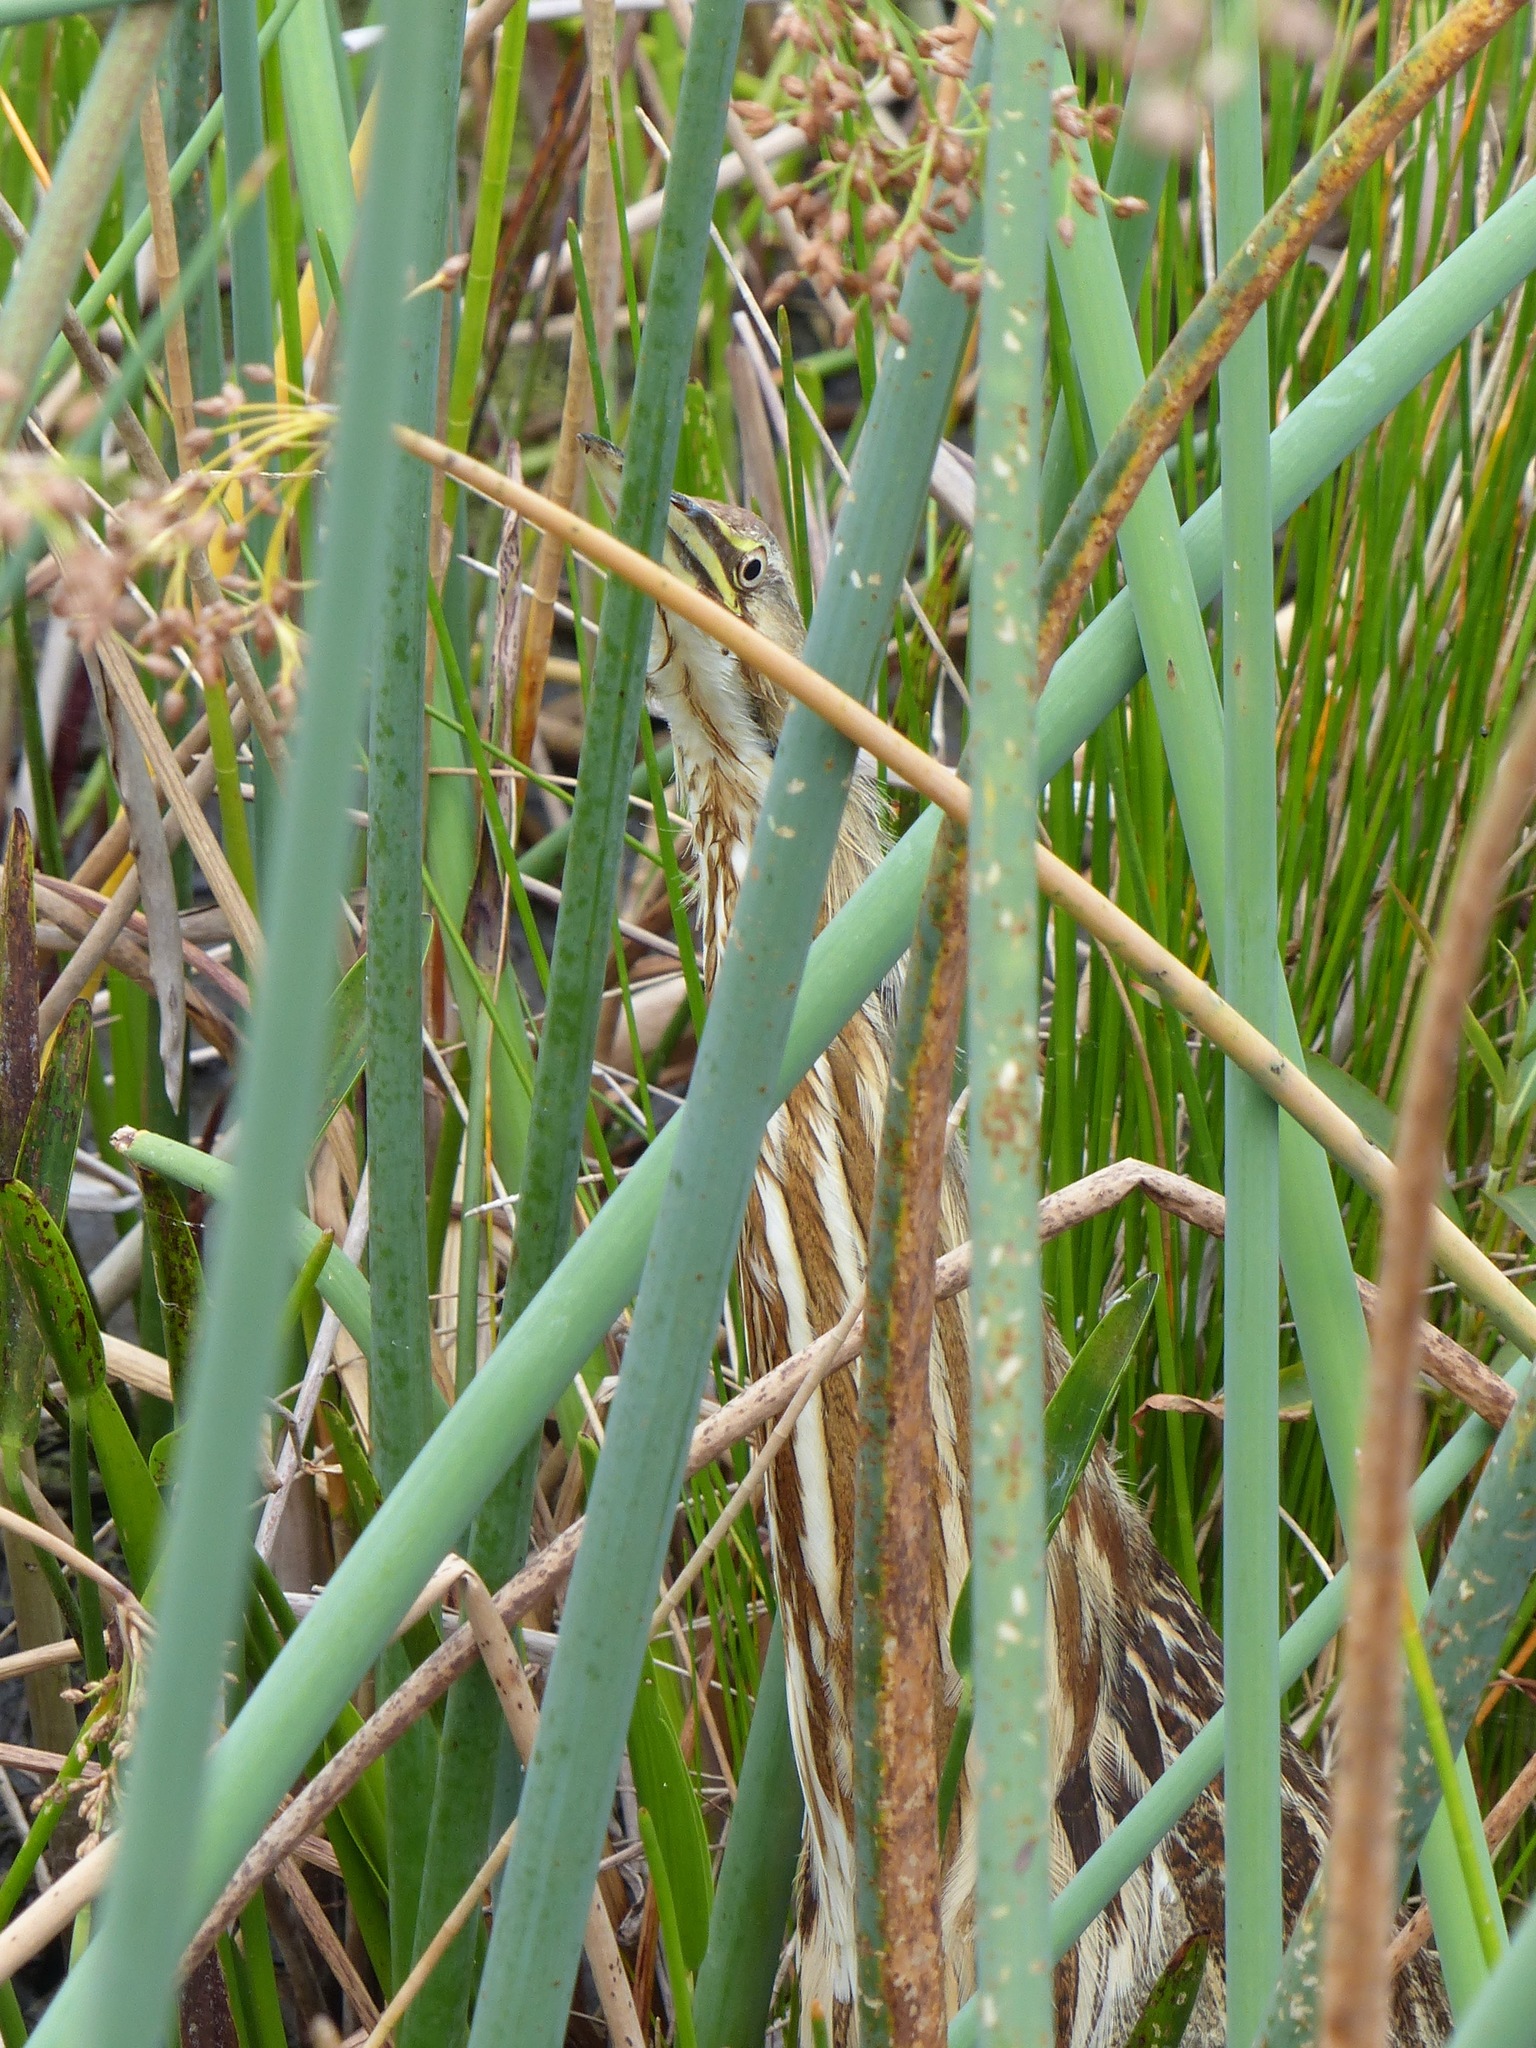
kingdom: Animalia
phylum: Chordata
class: Aves
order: Pelecaniformes
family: Ardeidae
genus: Botaurus
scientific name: Botaurus lentiginosus
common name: American bittern
